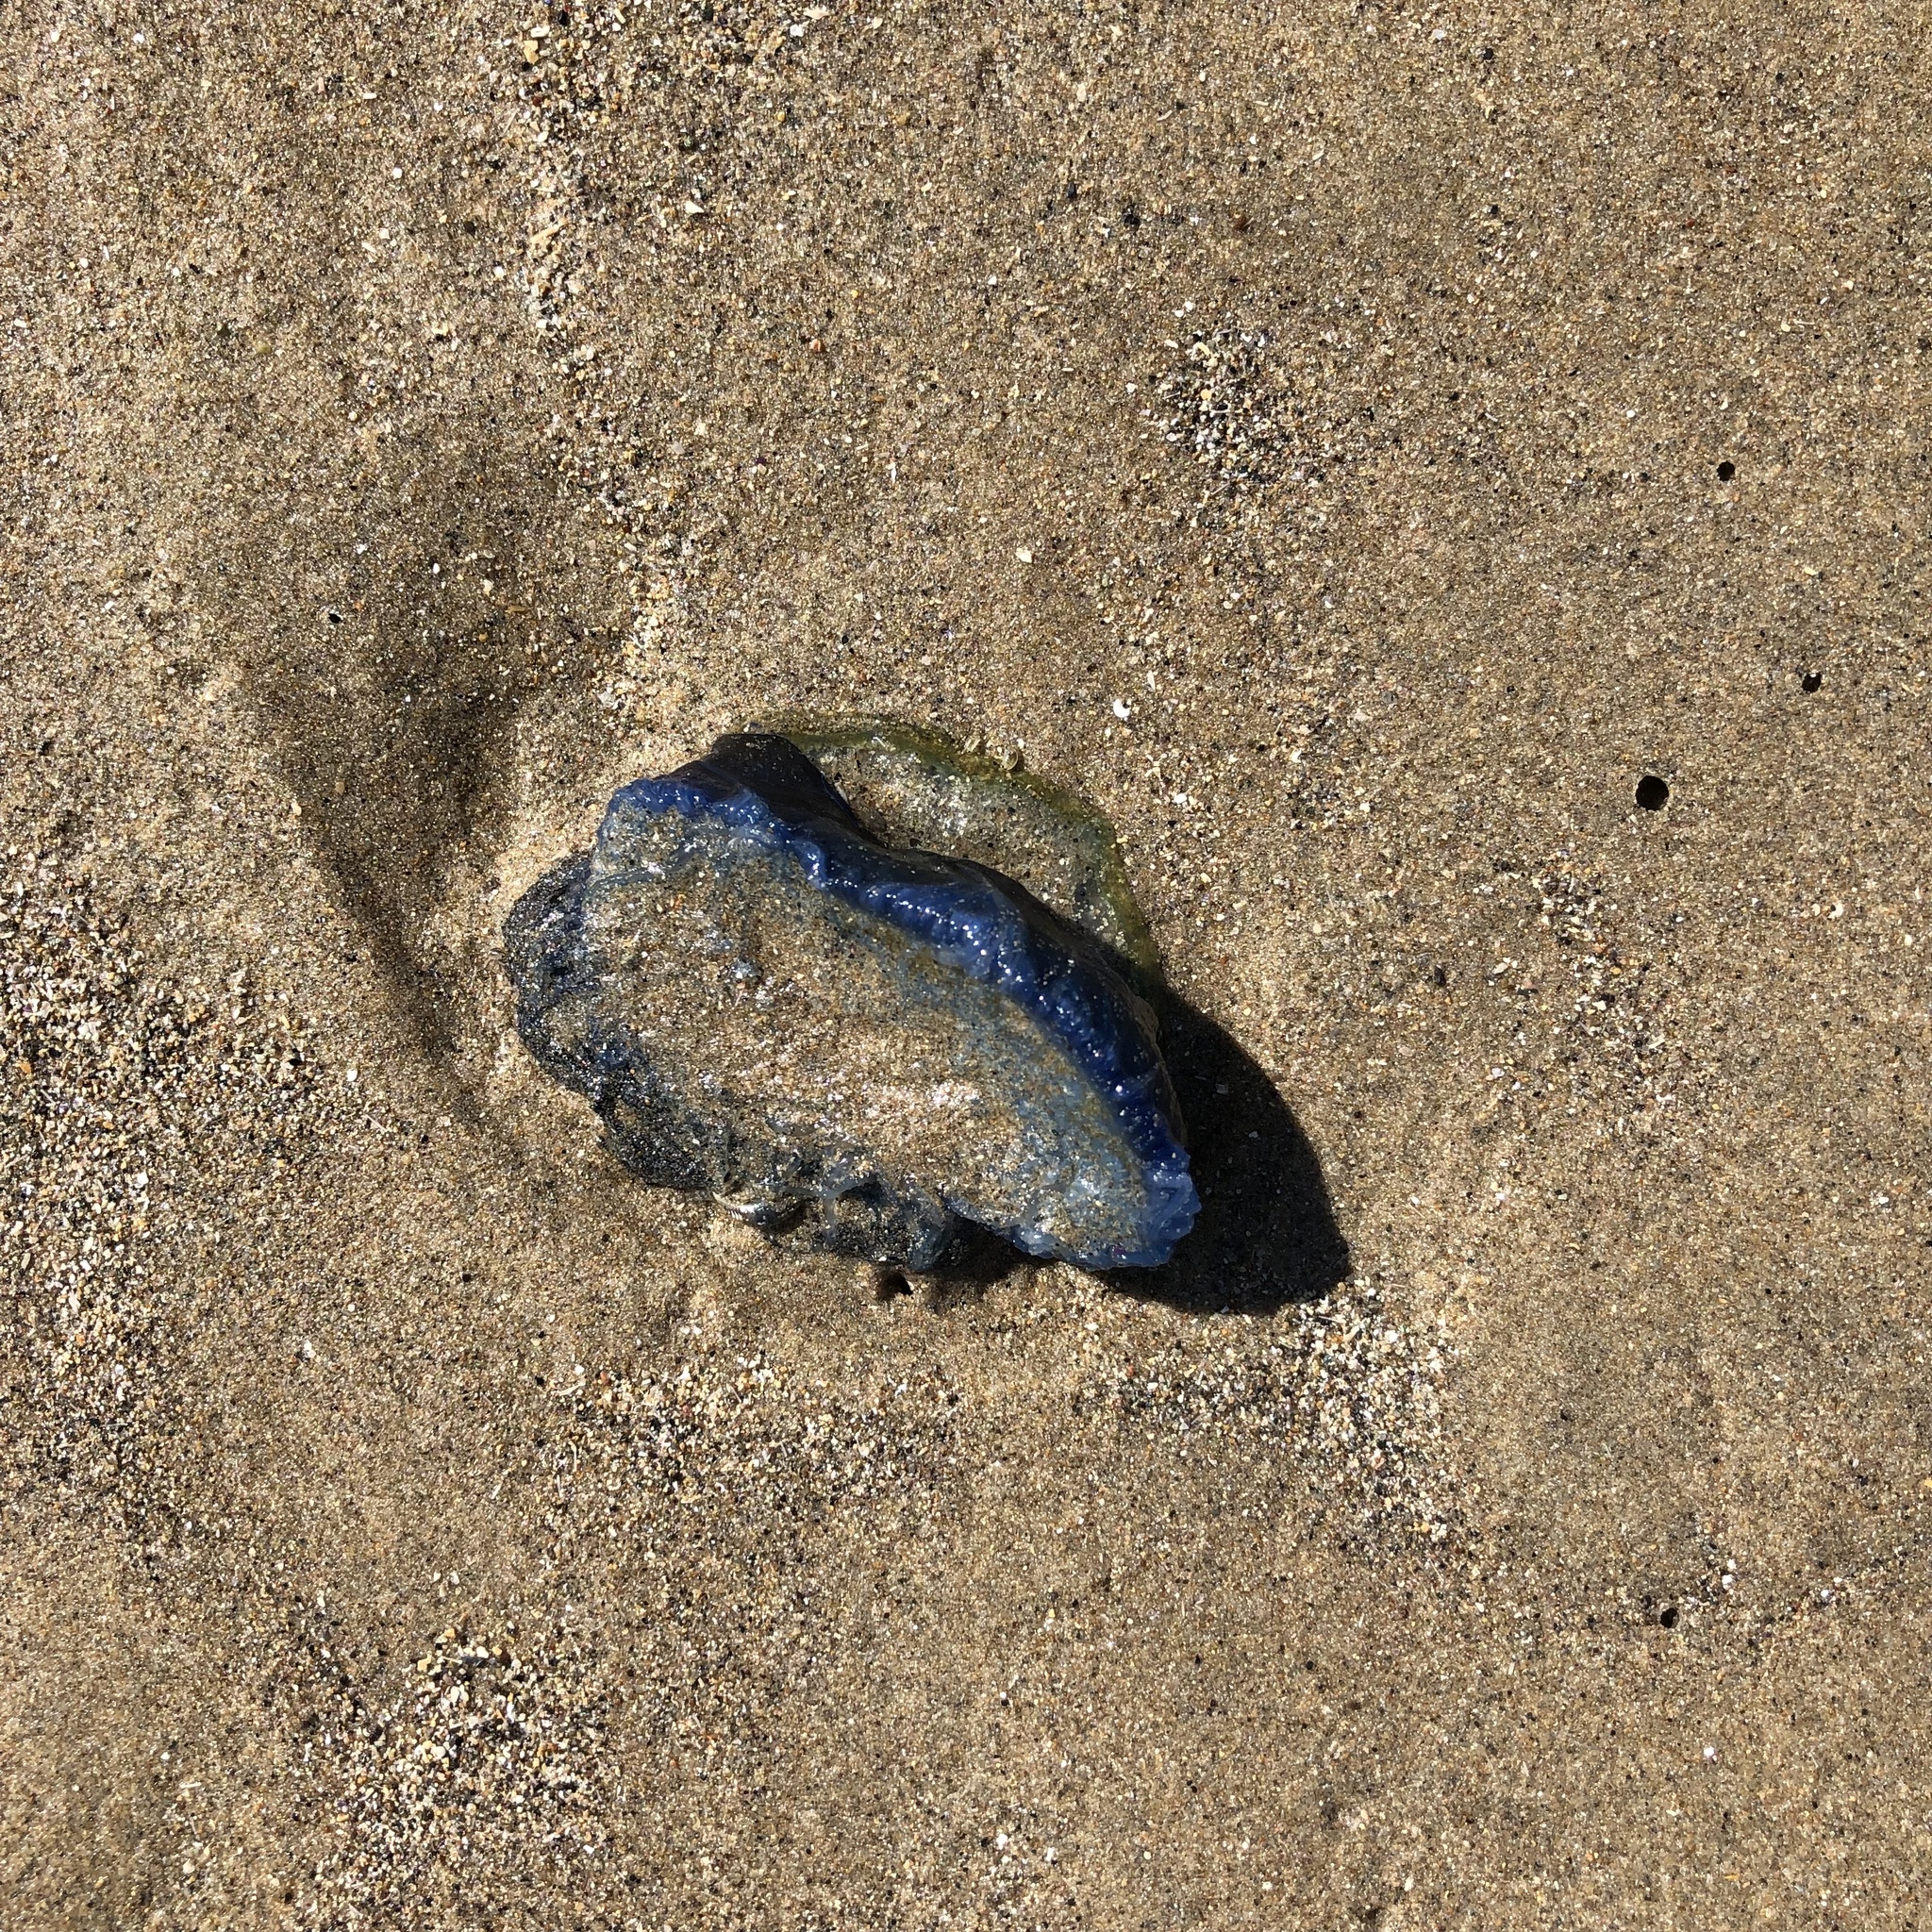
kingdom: Animalia
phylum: Cnidaria
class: Hydrozoa
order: Anthoathecata
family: Porpitidae
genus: Velella
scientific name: Velella velella
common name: By-the-wind-sailor
